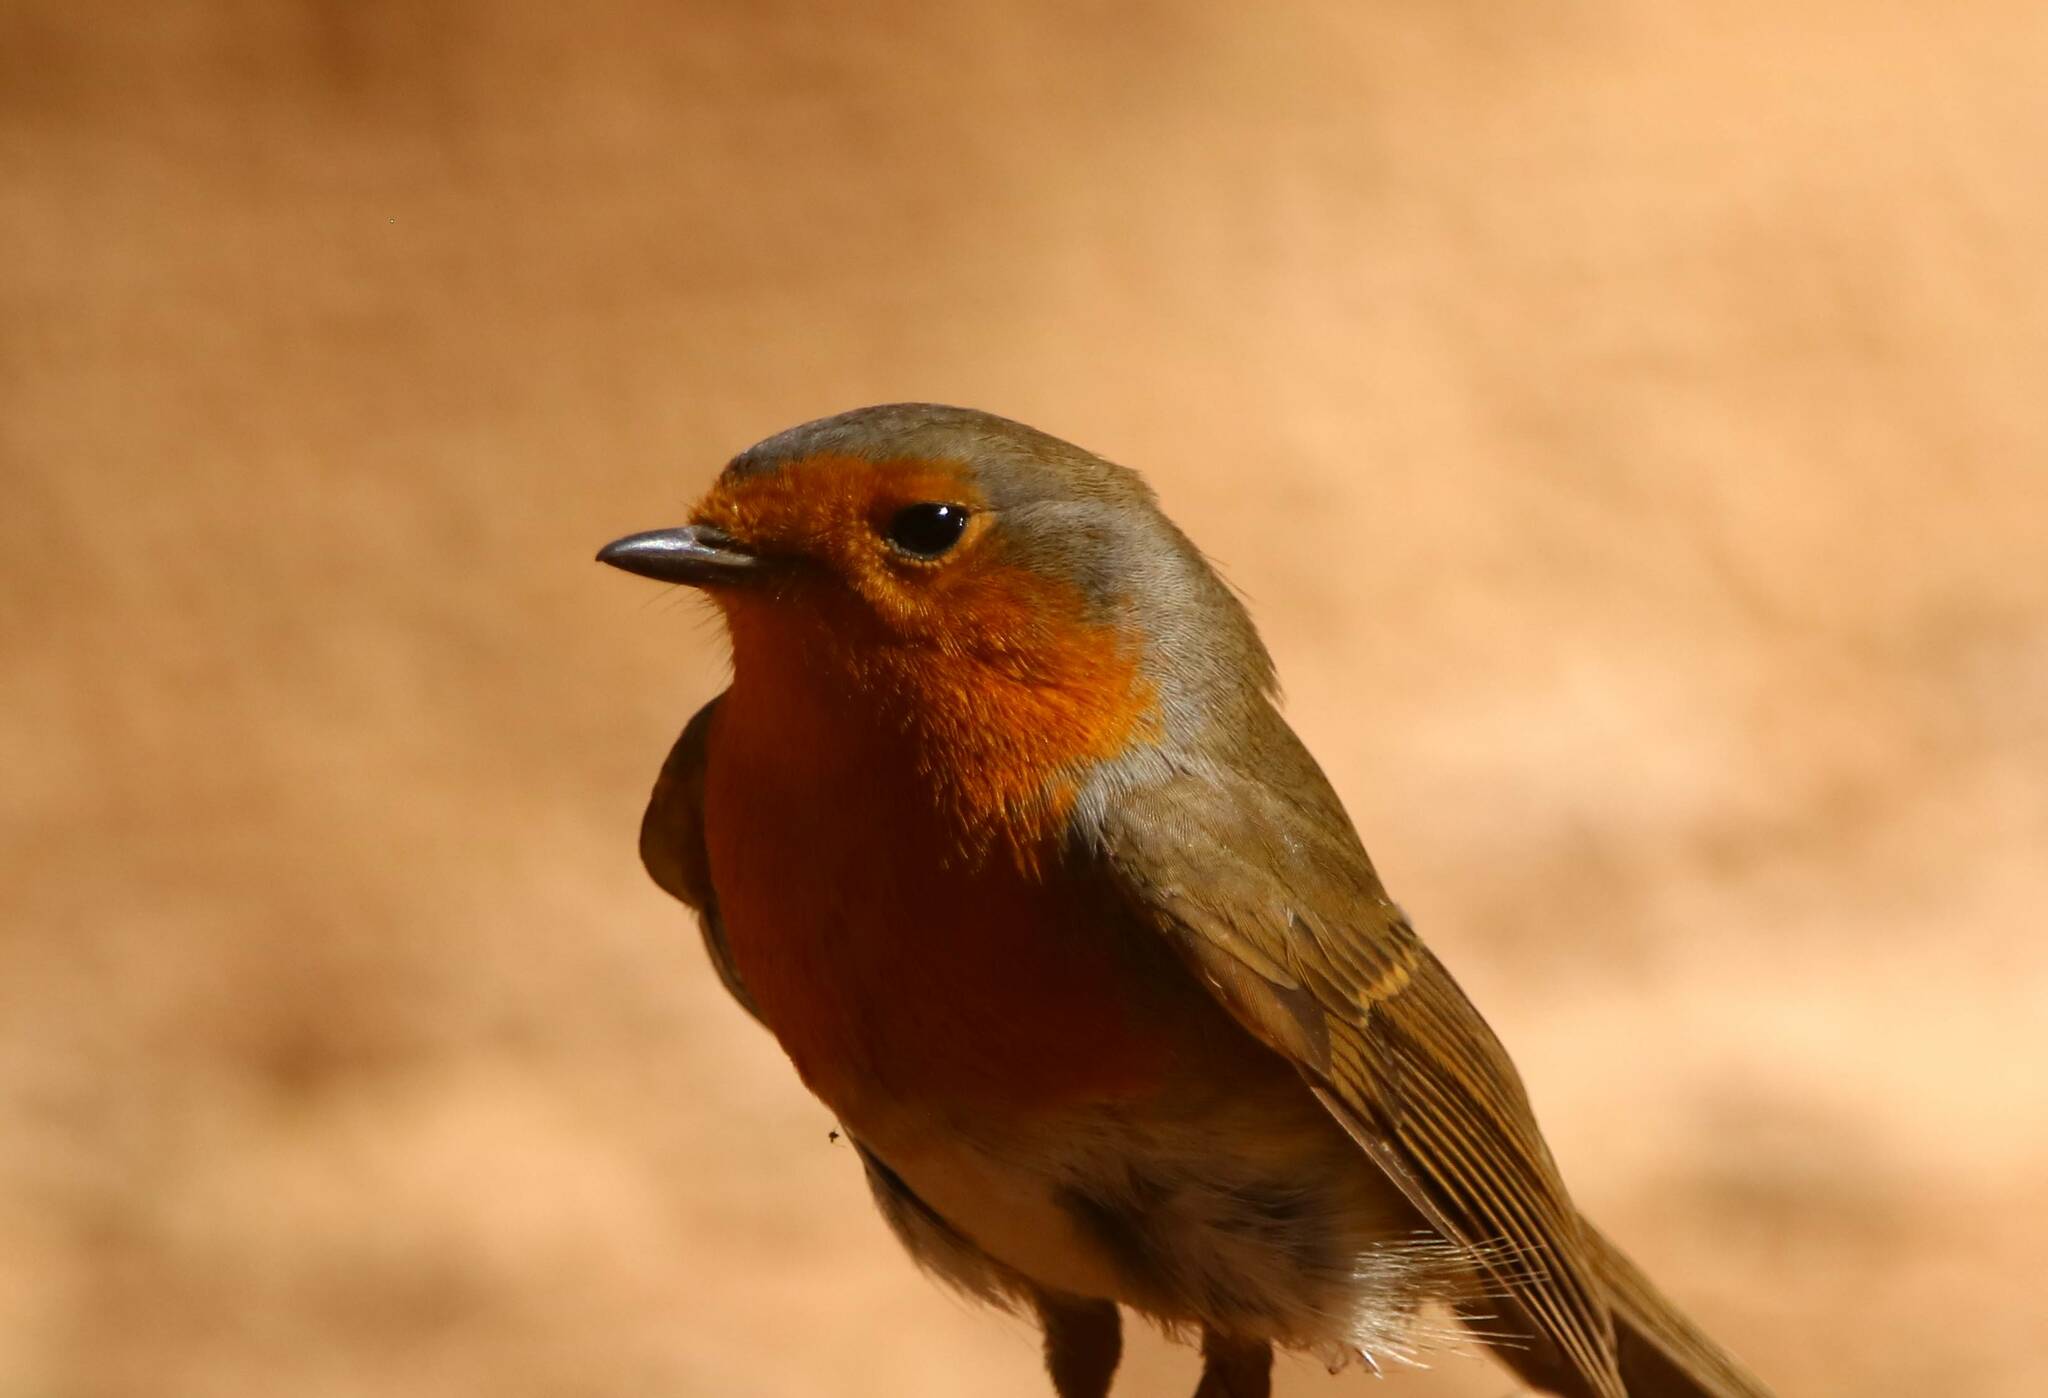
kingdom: Animalia
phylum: Chordata
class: Aves
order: Passeriformes
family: Muscicapidae
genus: Erithacus
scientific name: Erithacus rubecula
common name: European robin
